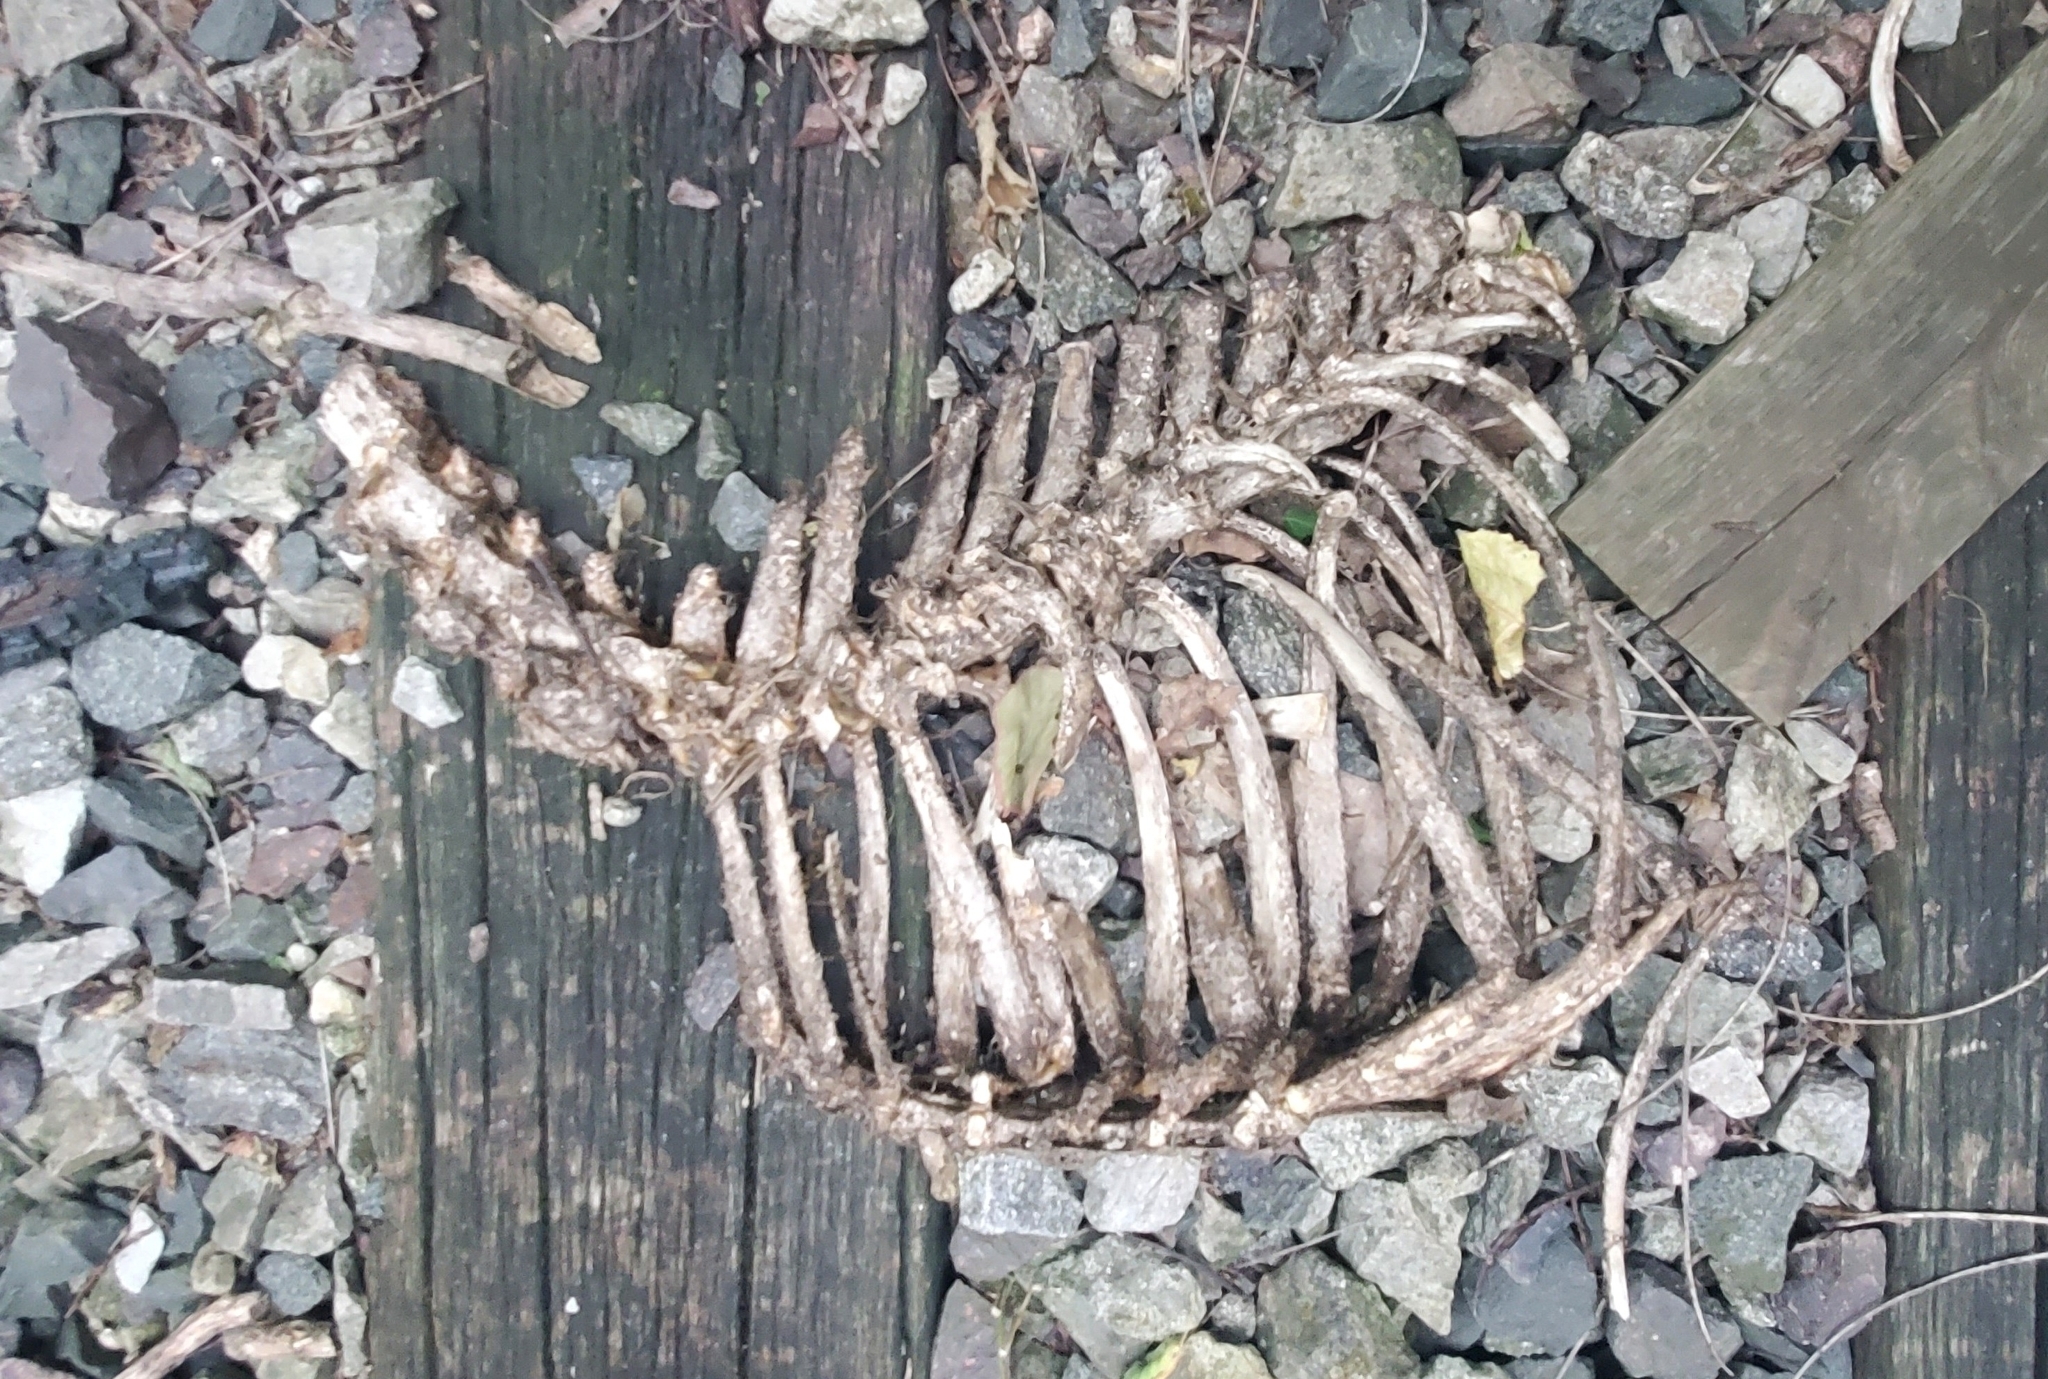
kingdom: Animalia
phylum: Chordata
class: Mammalia
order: Artiodactyla
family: Cervidae
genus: Odocoileus
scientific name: Odocoileus virginianus
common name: White-tailed deer
